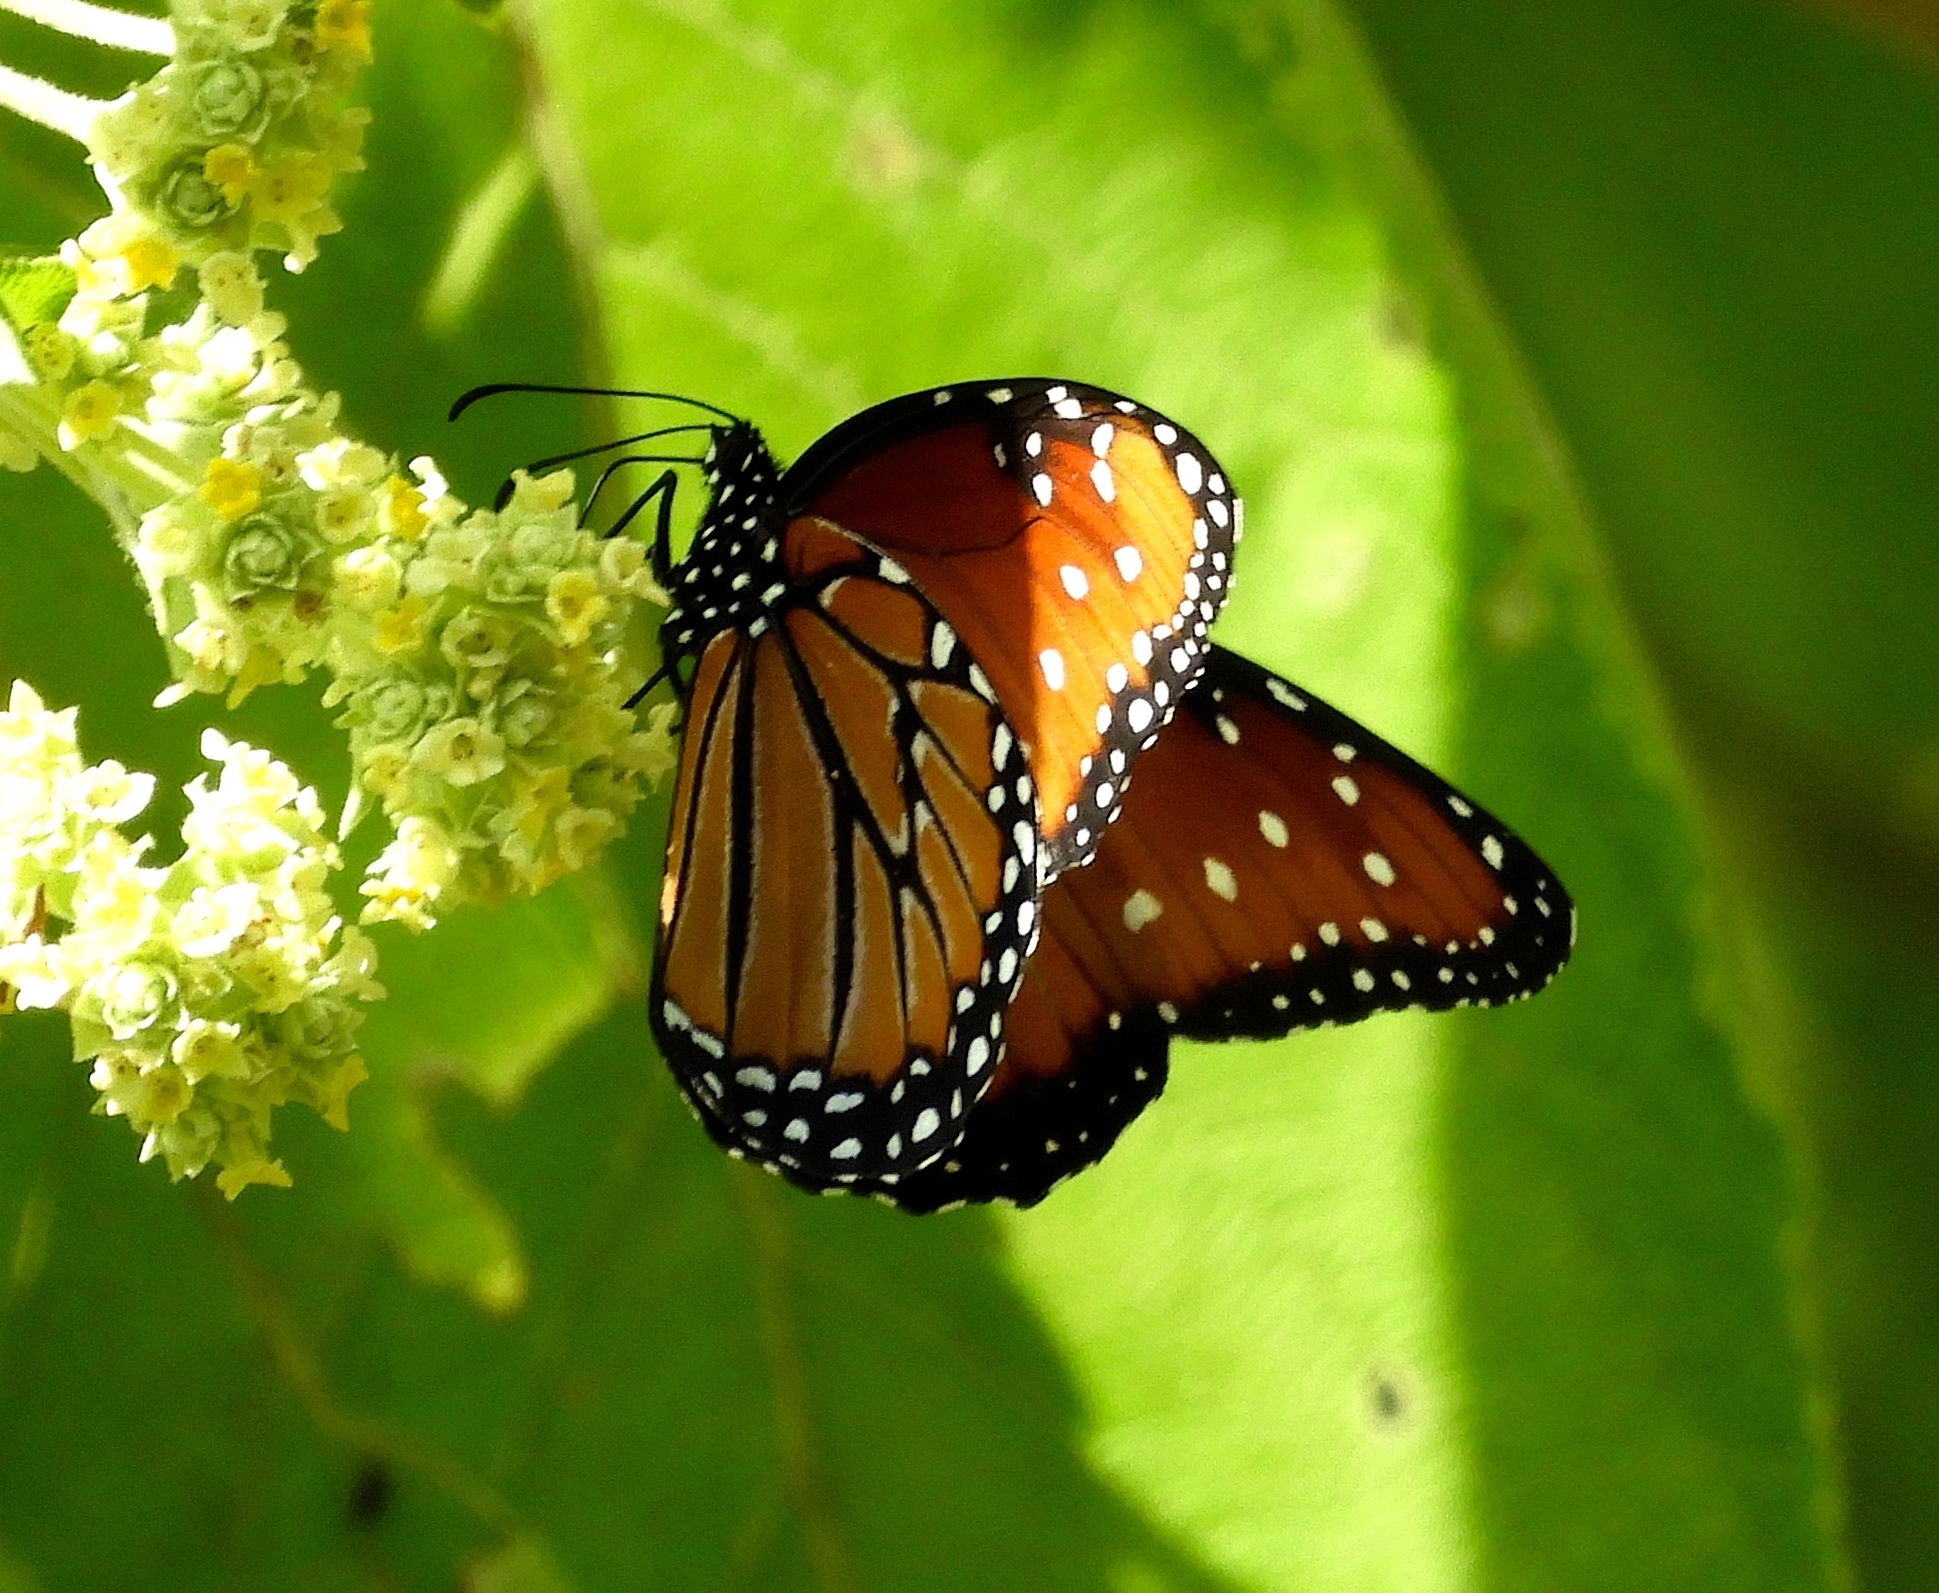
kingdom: Animalia
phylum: Arthropoda
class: Insecta
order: Lepidoptera
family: Nymphalidae
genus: Danaus
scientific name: Danaus gilippus
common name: Queen
